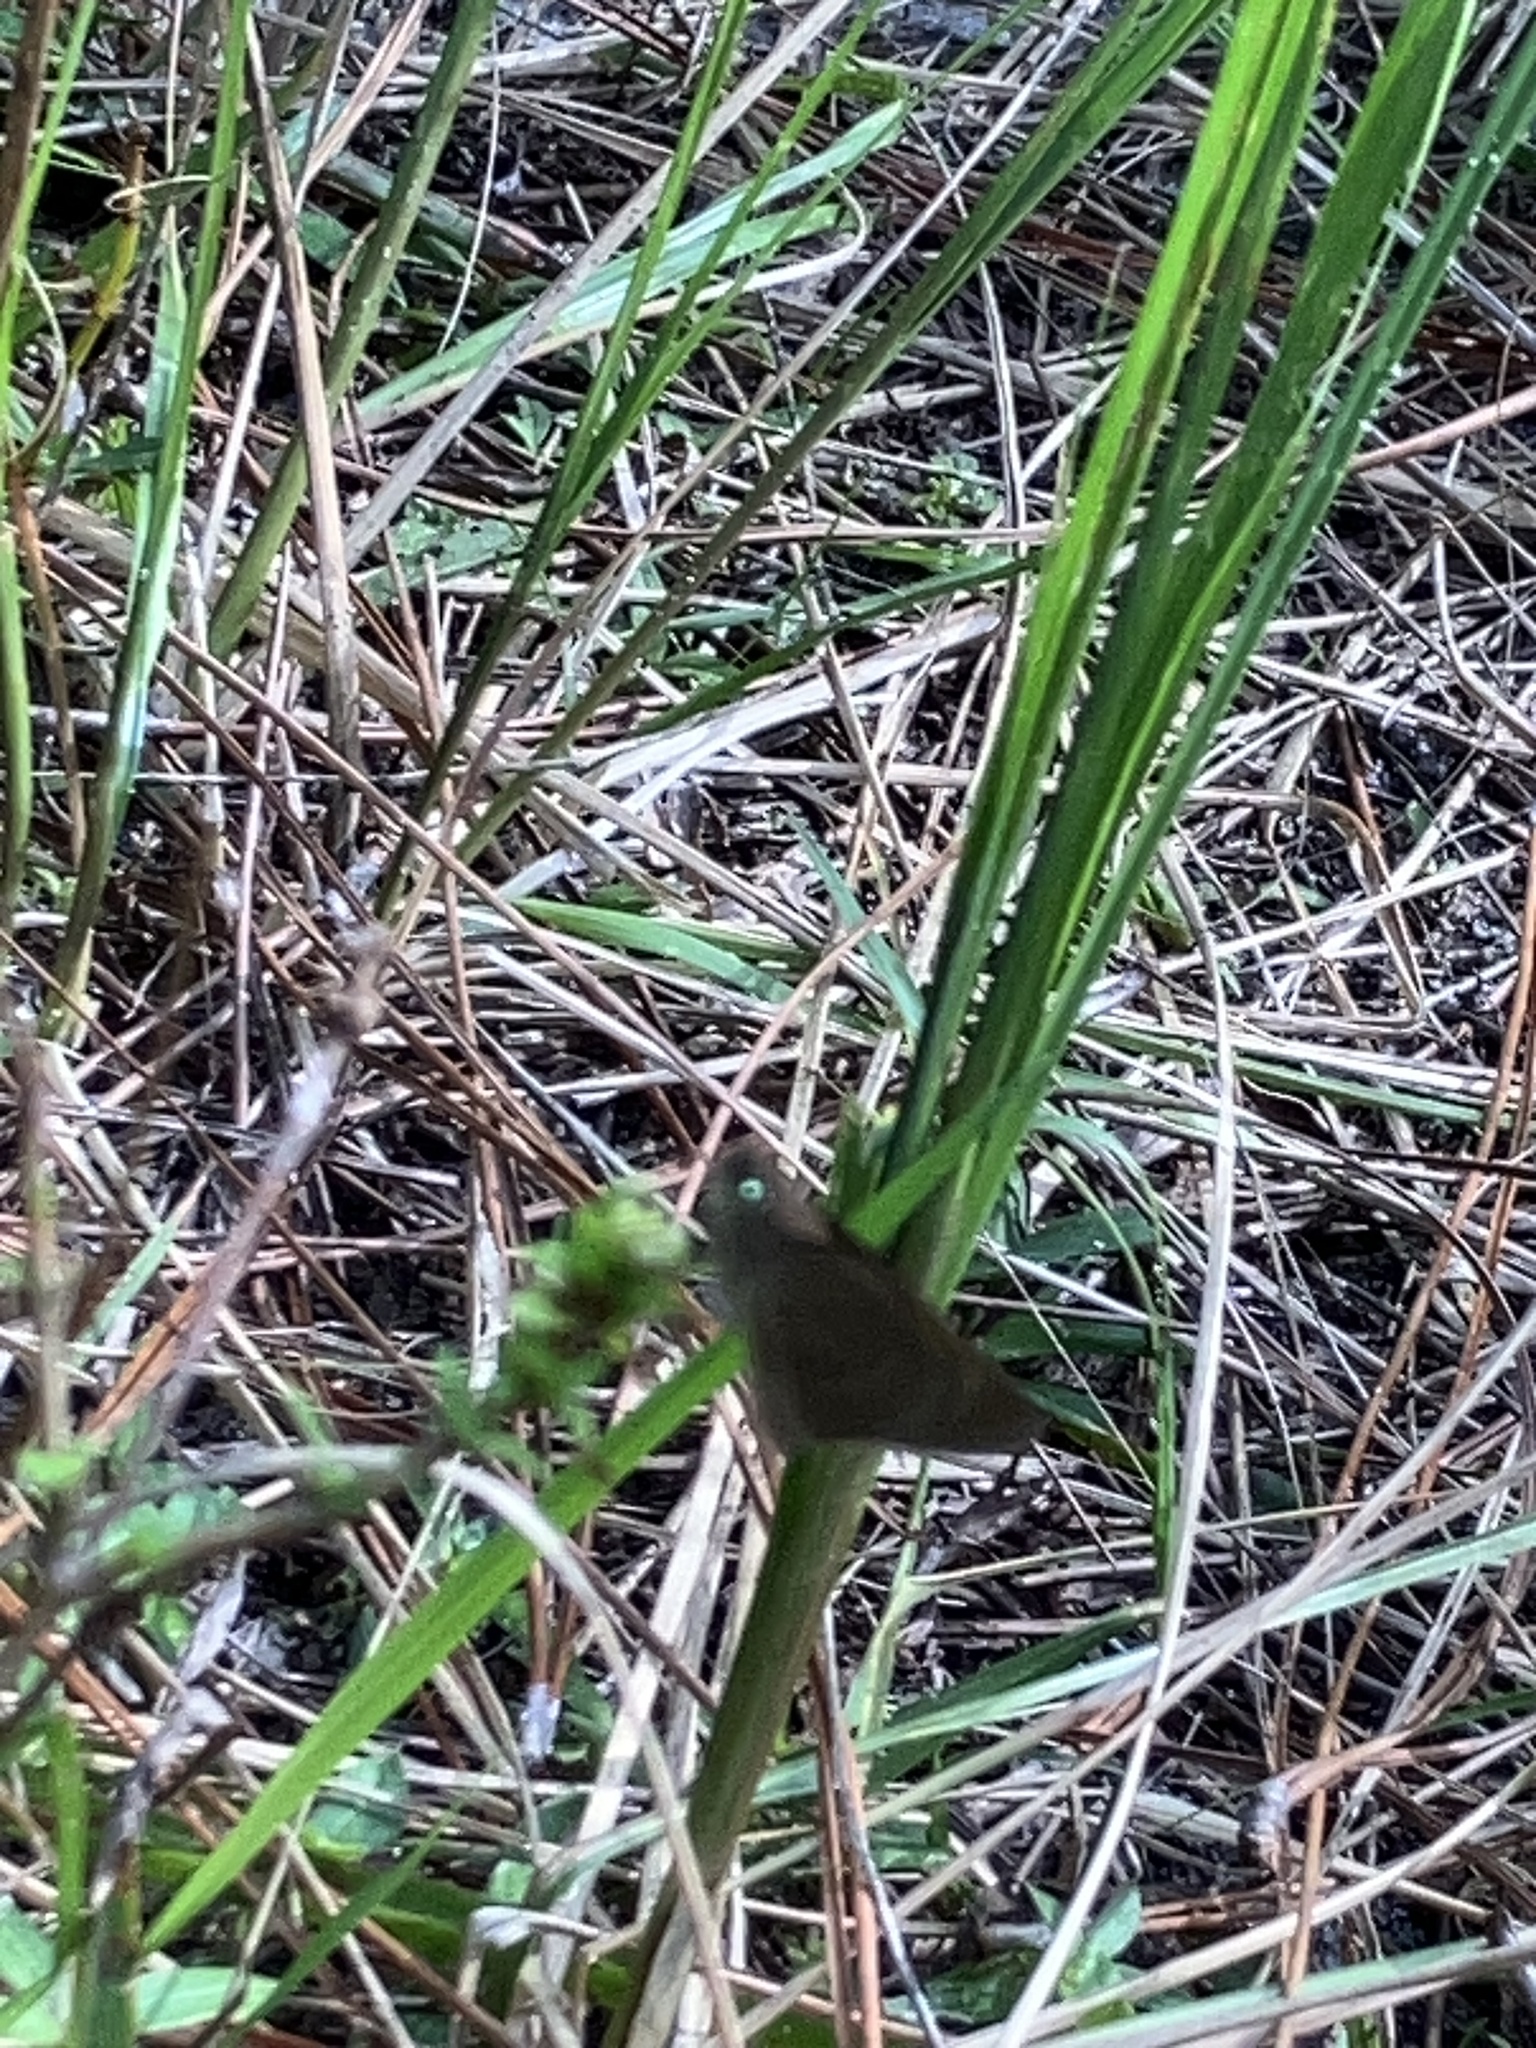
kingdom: Animalia
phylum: Arthropoda
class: Insecta
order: Lepidoptera
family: Hesperiidae
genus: Cymaenes
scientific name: Cymaenes tripunctus
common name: Dingy dotted skipper
